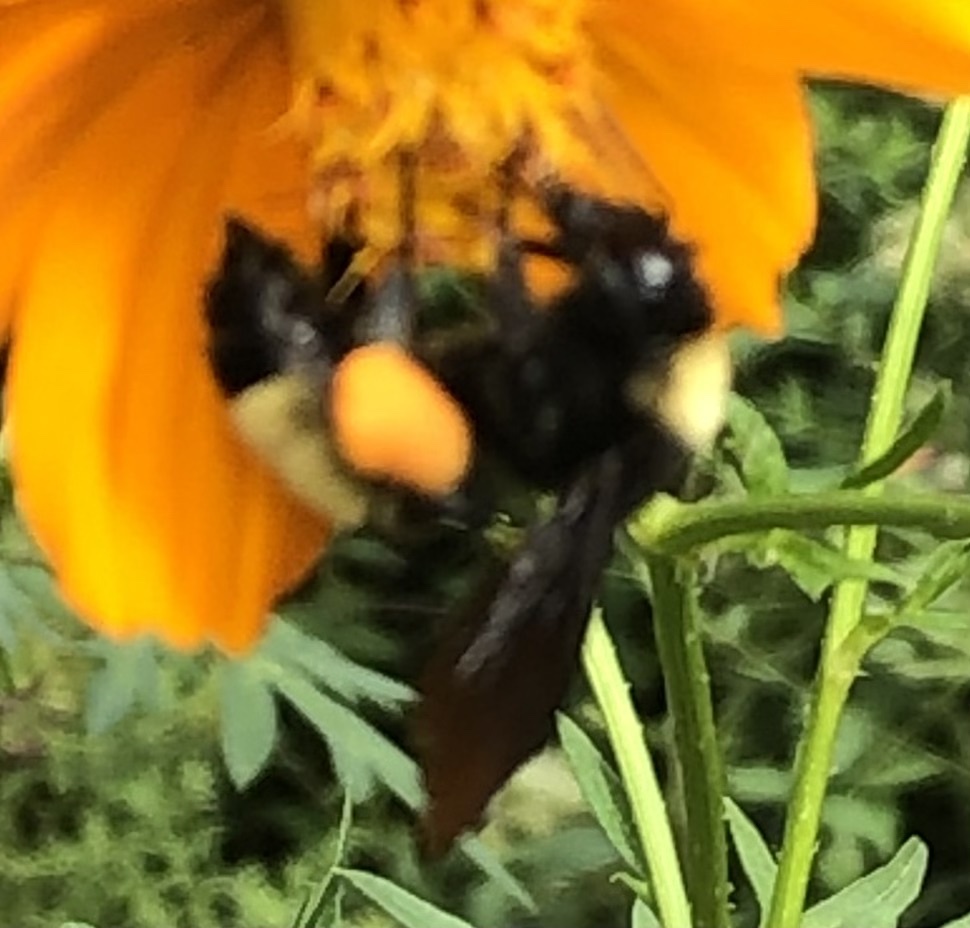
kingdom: Animalia
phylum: Arthropoda
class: Insecta
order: Hymenoptera
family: Apidae
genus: Bombus
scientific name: Bombus pensylvanicus
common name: Bumble bee
